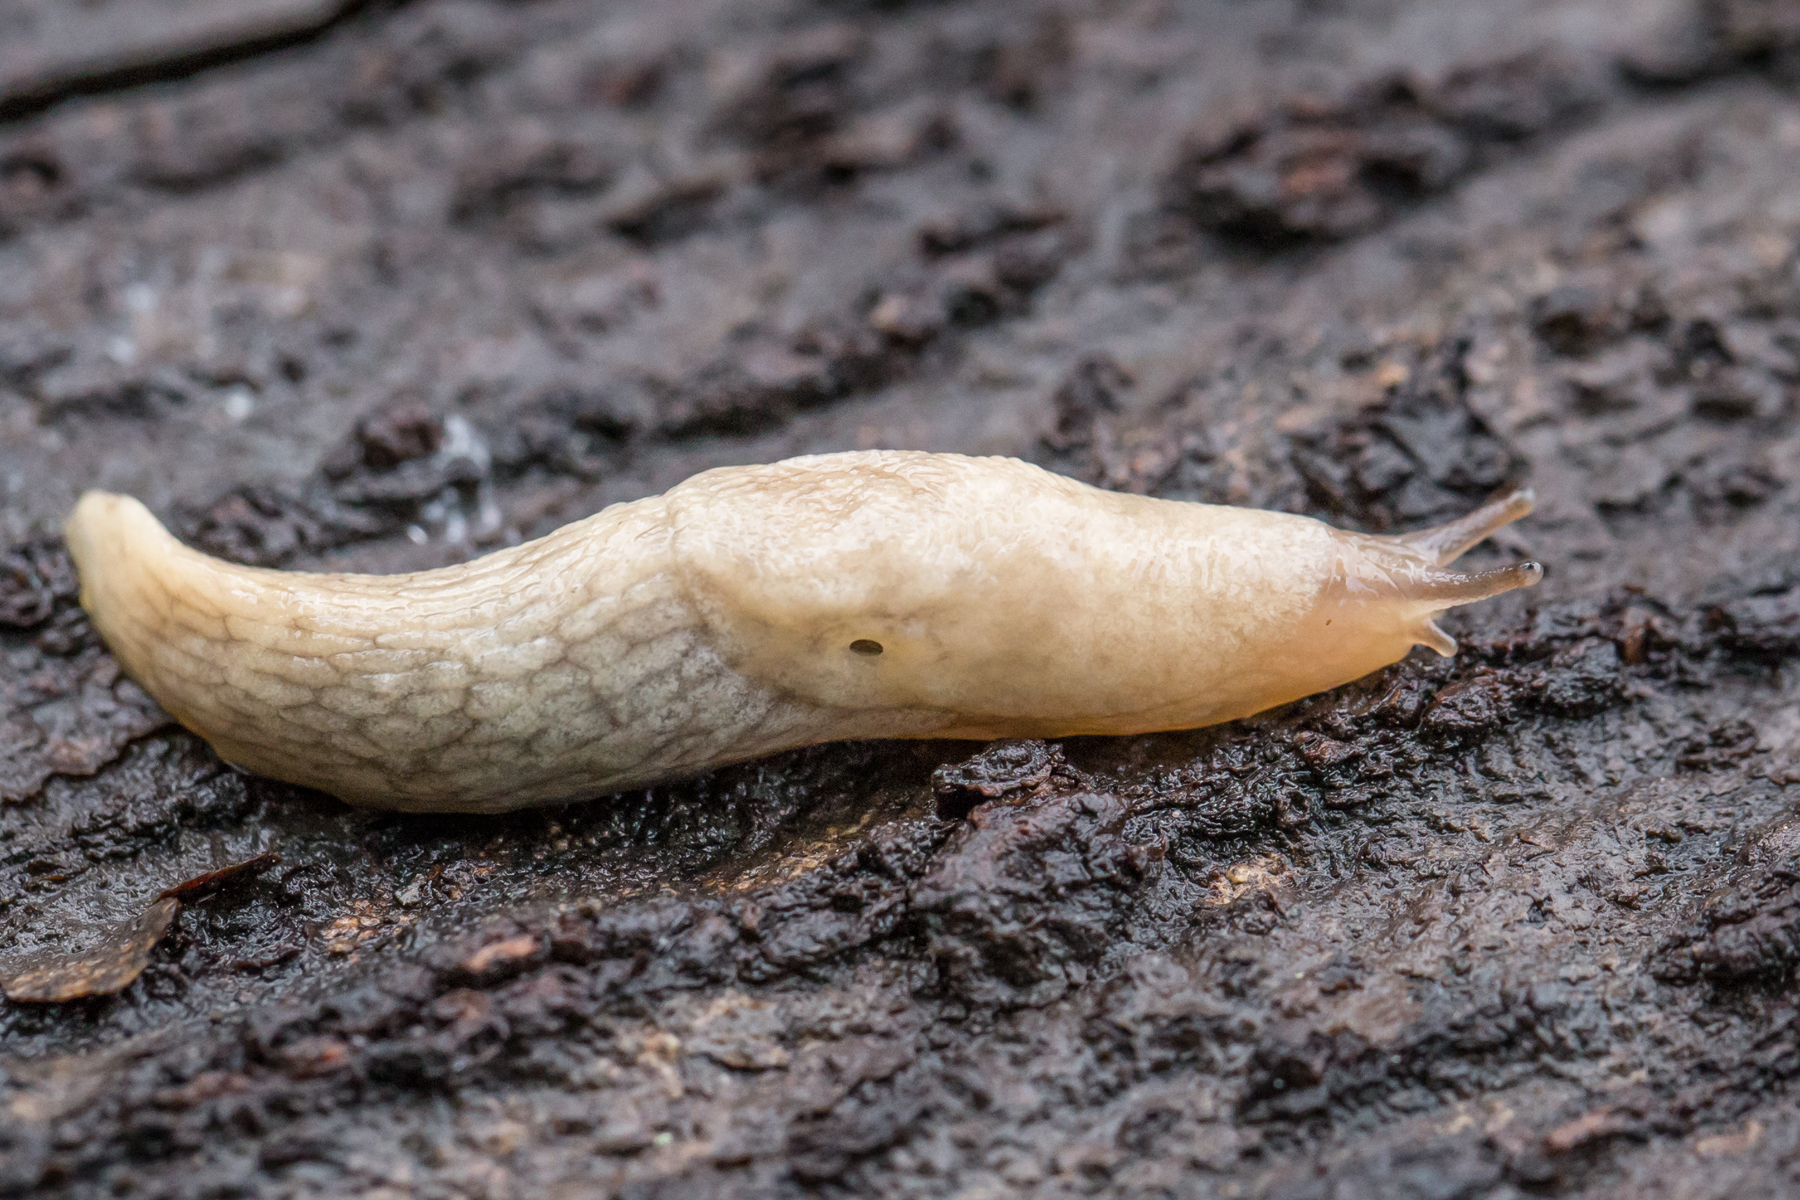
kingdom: Animalia
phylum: Mollusca
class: Gastropoda
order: Stylommatophora
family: Agriolimacidae
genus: Deroceras
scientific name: Deroceras reticulatum
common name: Gray field slug
